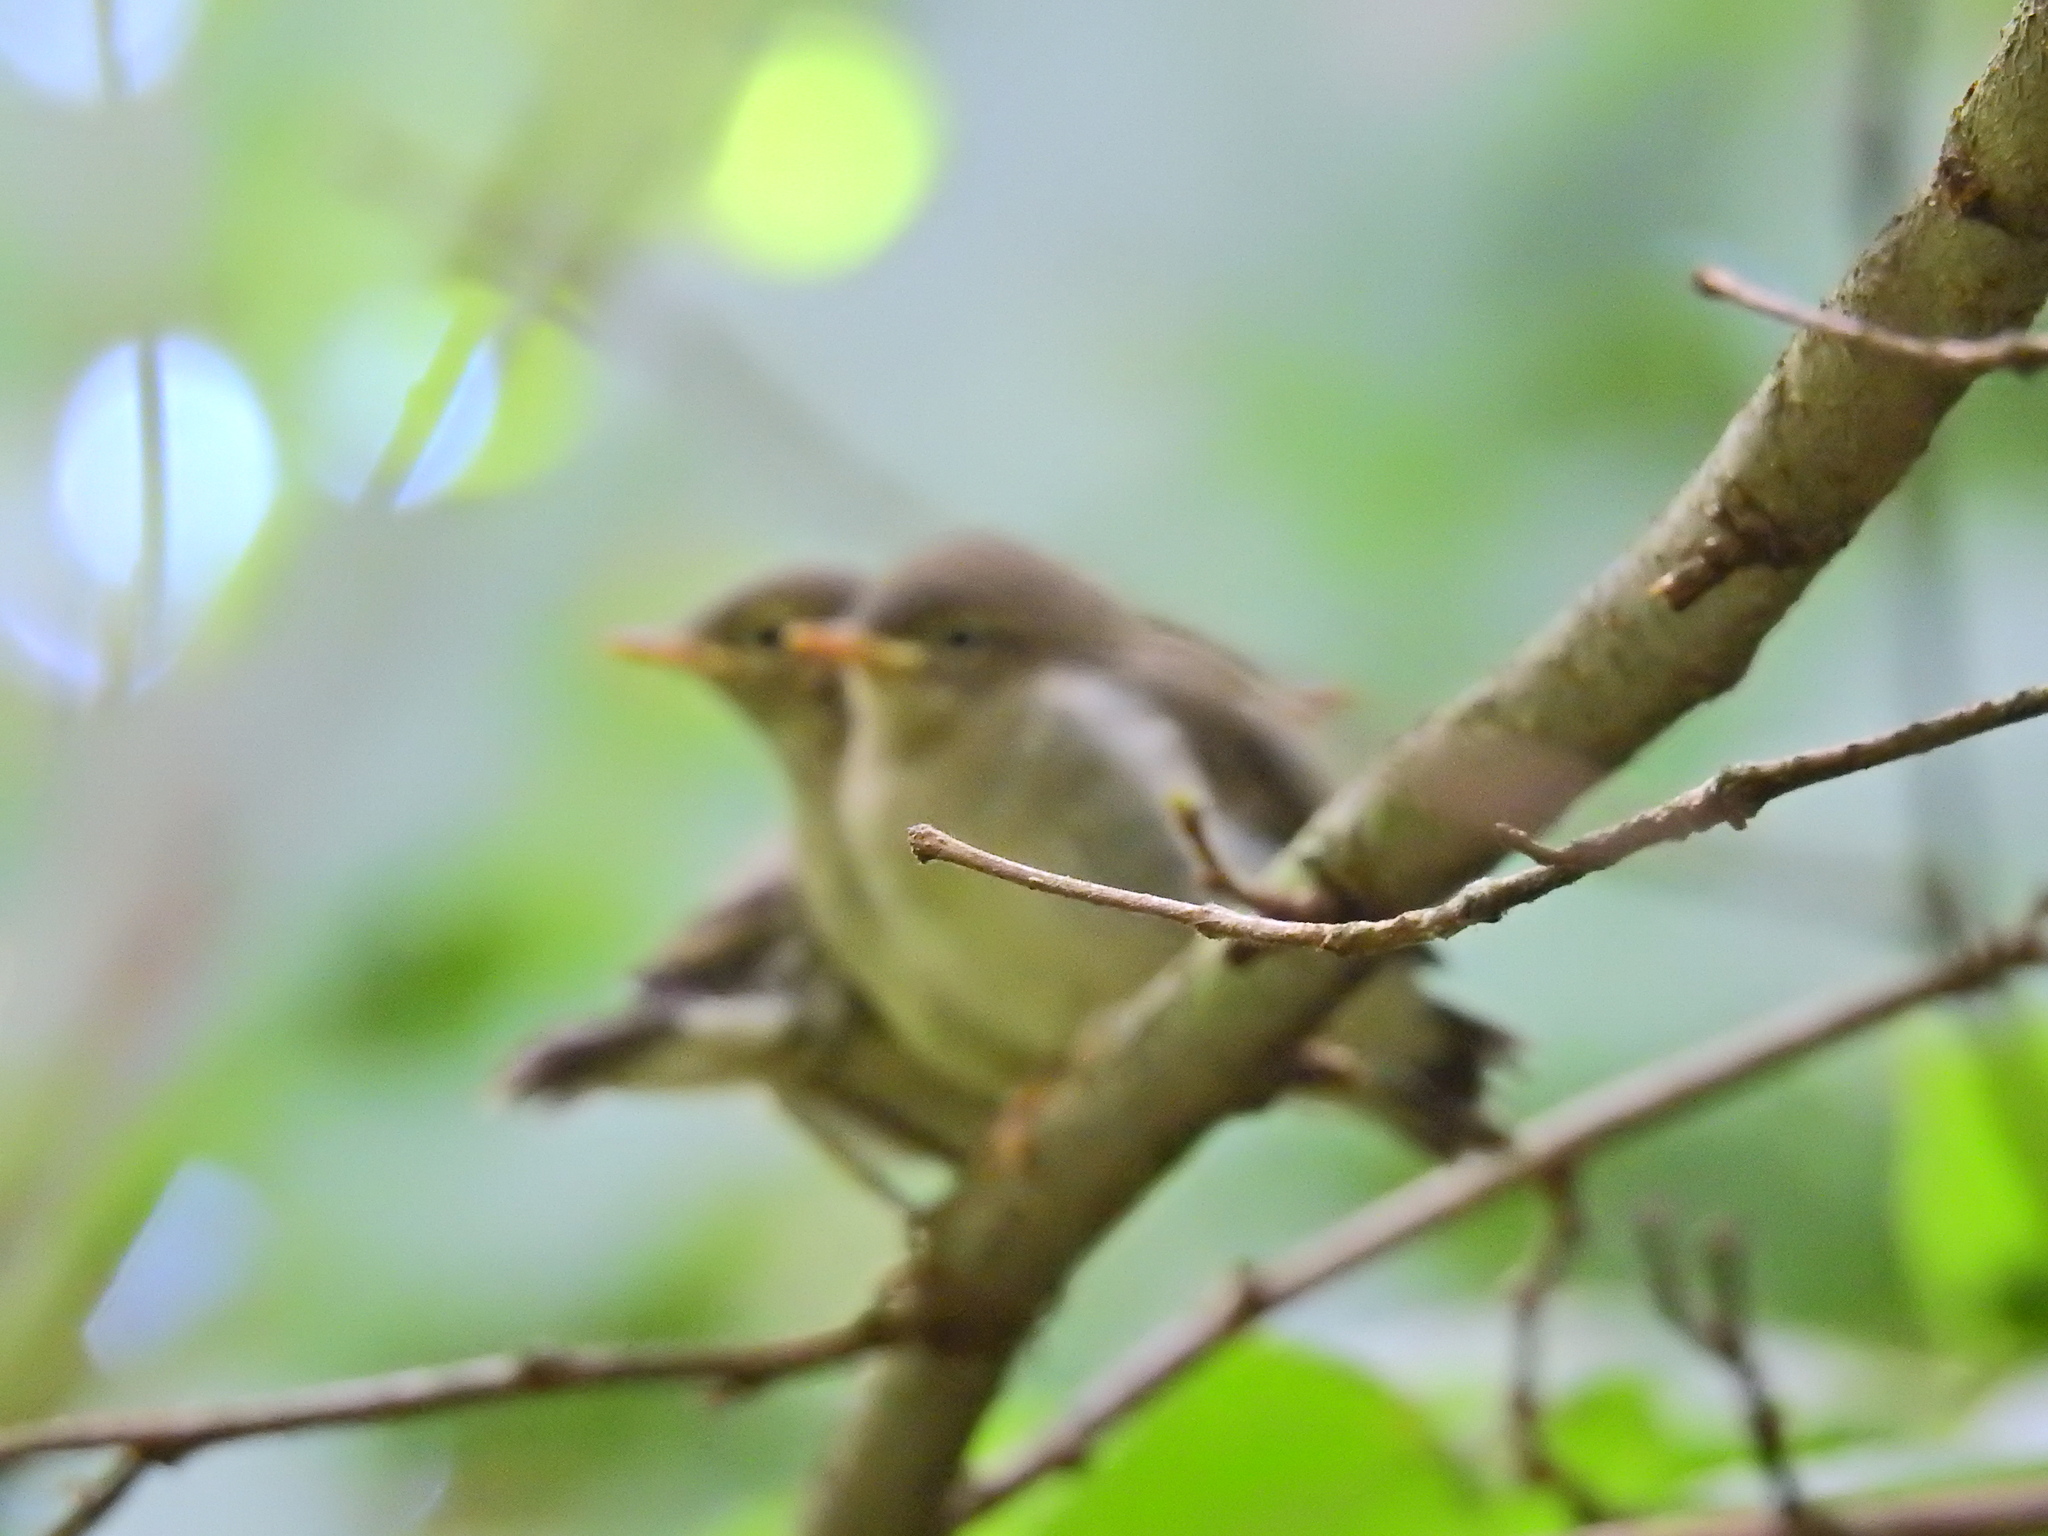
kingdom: Animalia
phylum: Chordata
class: Aves
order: Passeriformes
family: Phylloscopidae
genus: Phylloscopus
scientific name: Phylloscopus collybita
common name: Common chiffchaff
